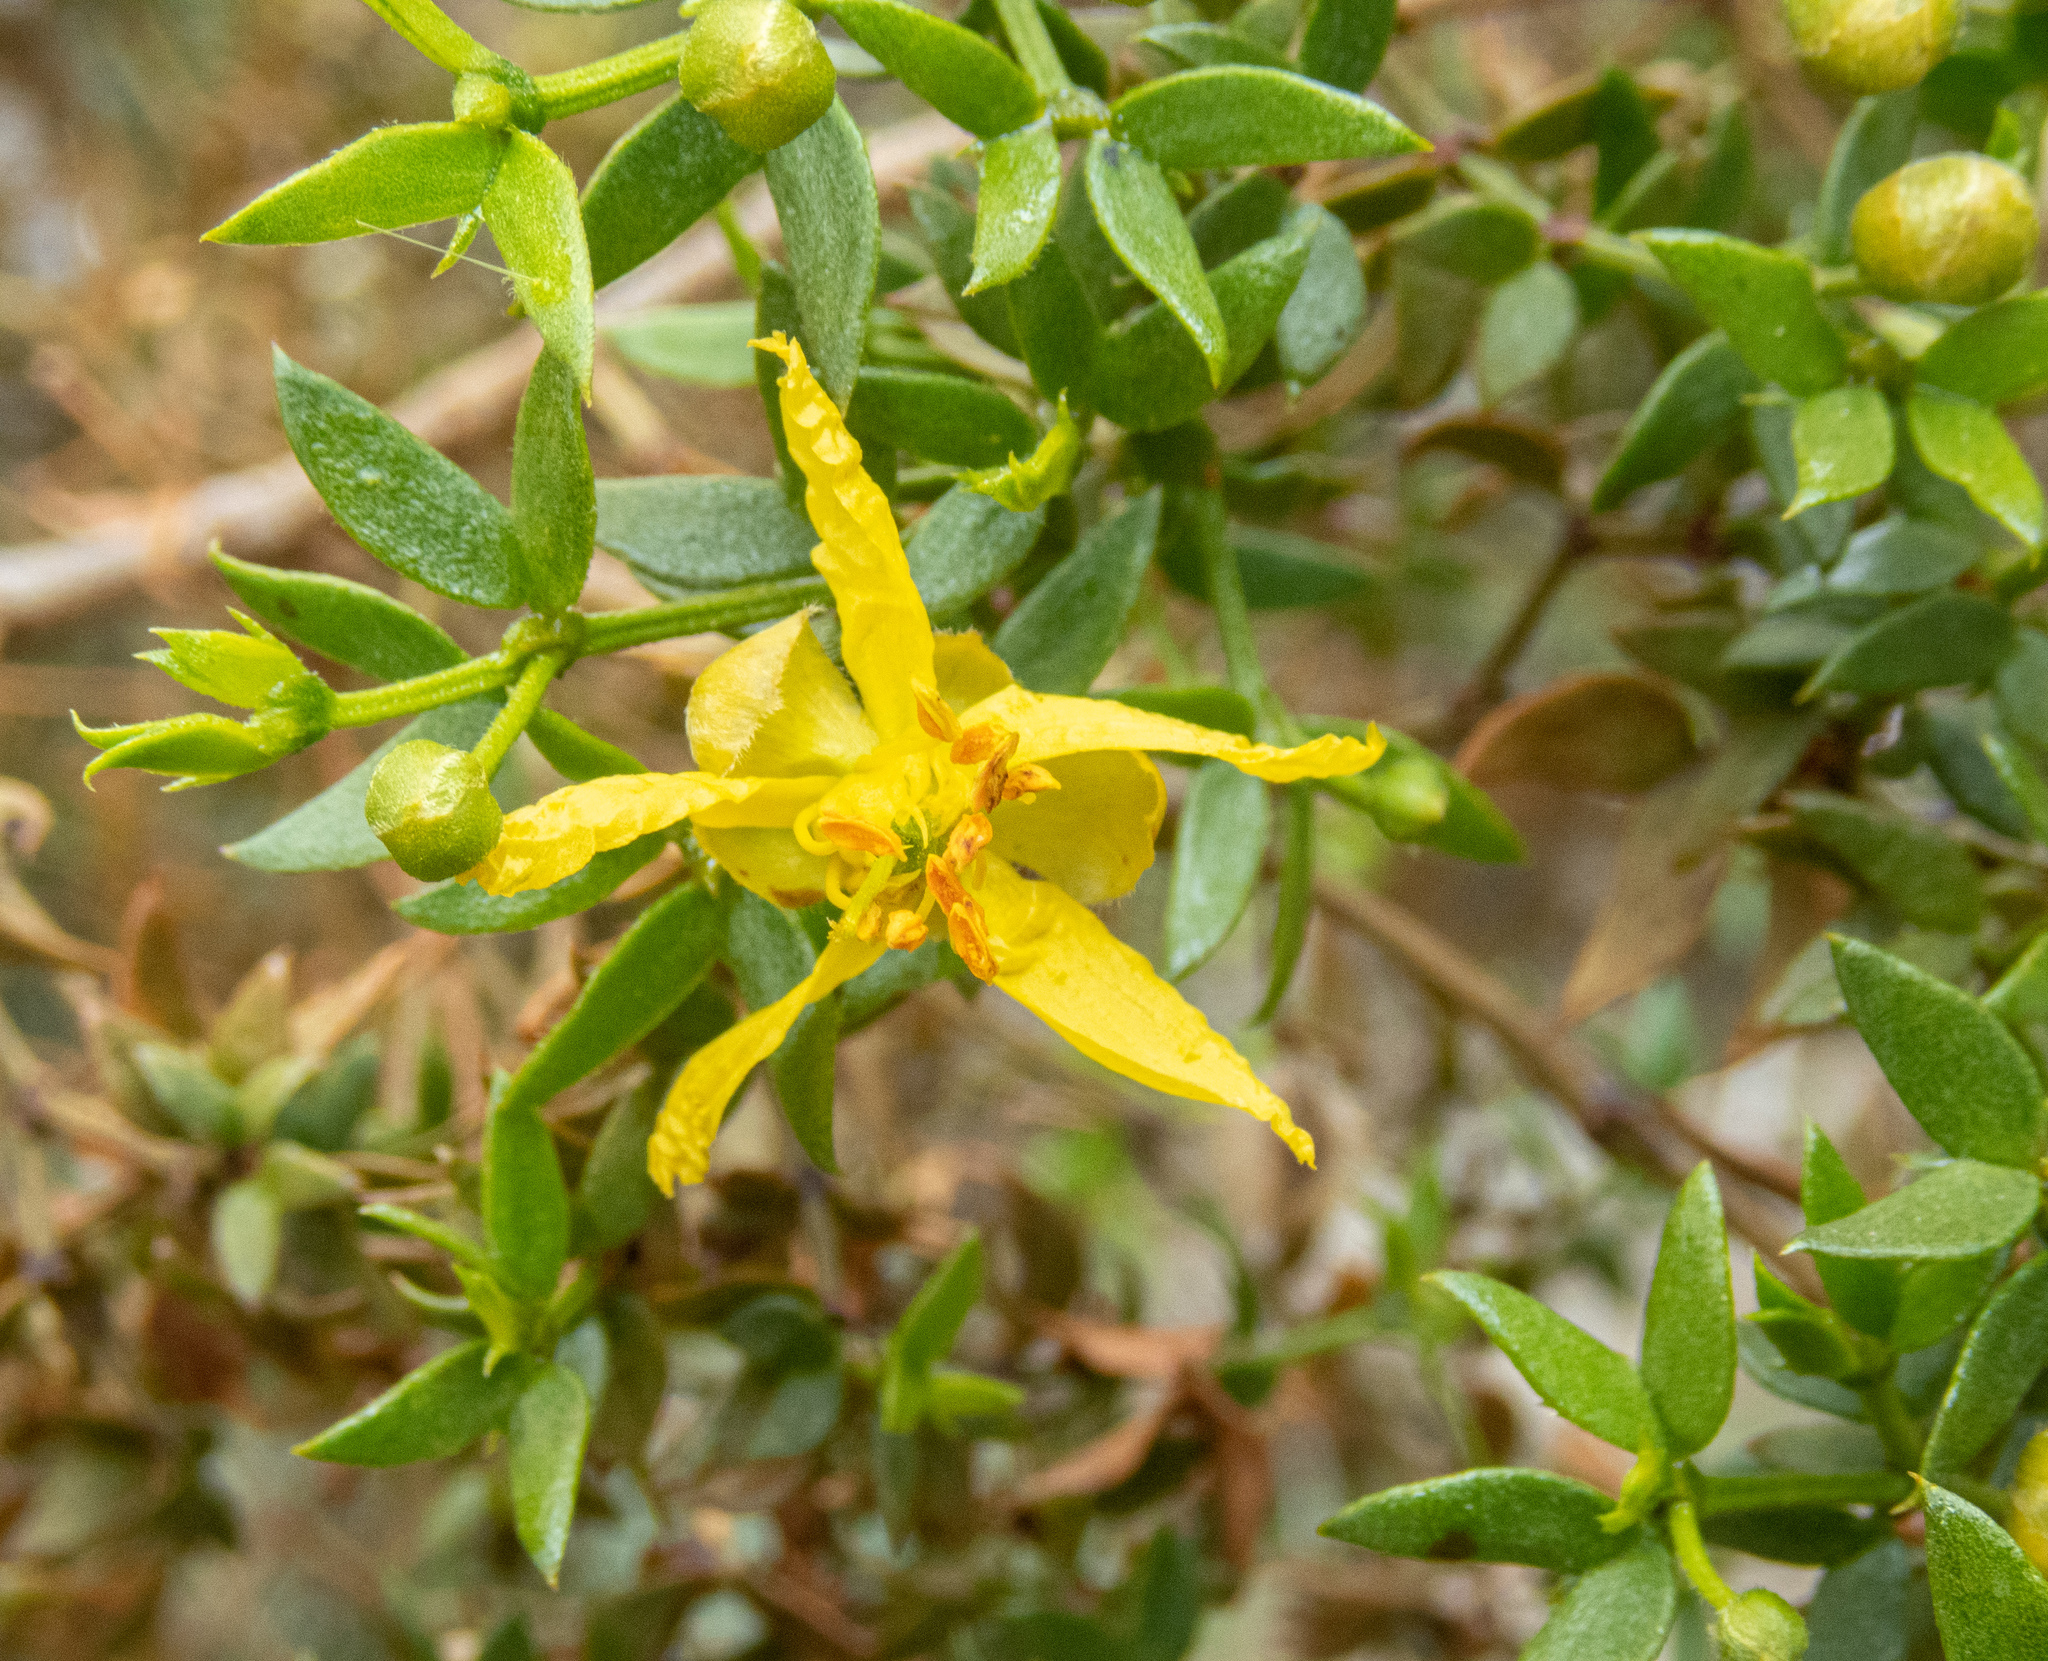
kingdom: Plantae
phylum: Tracheophyta
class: Magnoliopsida
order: Zygophyllales
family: Zygophyllaceae
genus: Larrea
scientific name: Larrea tridentata
